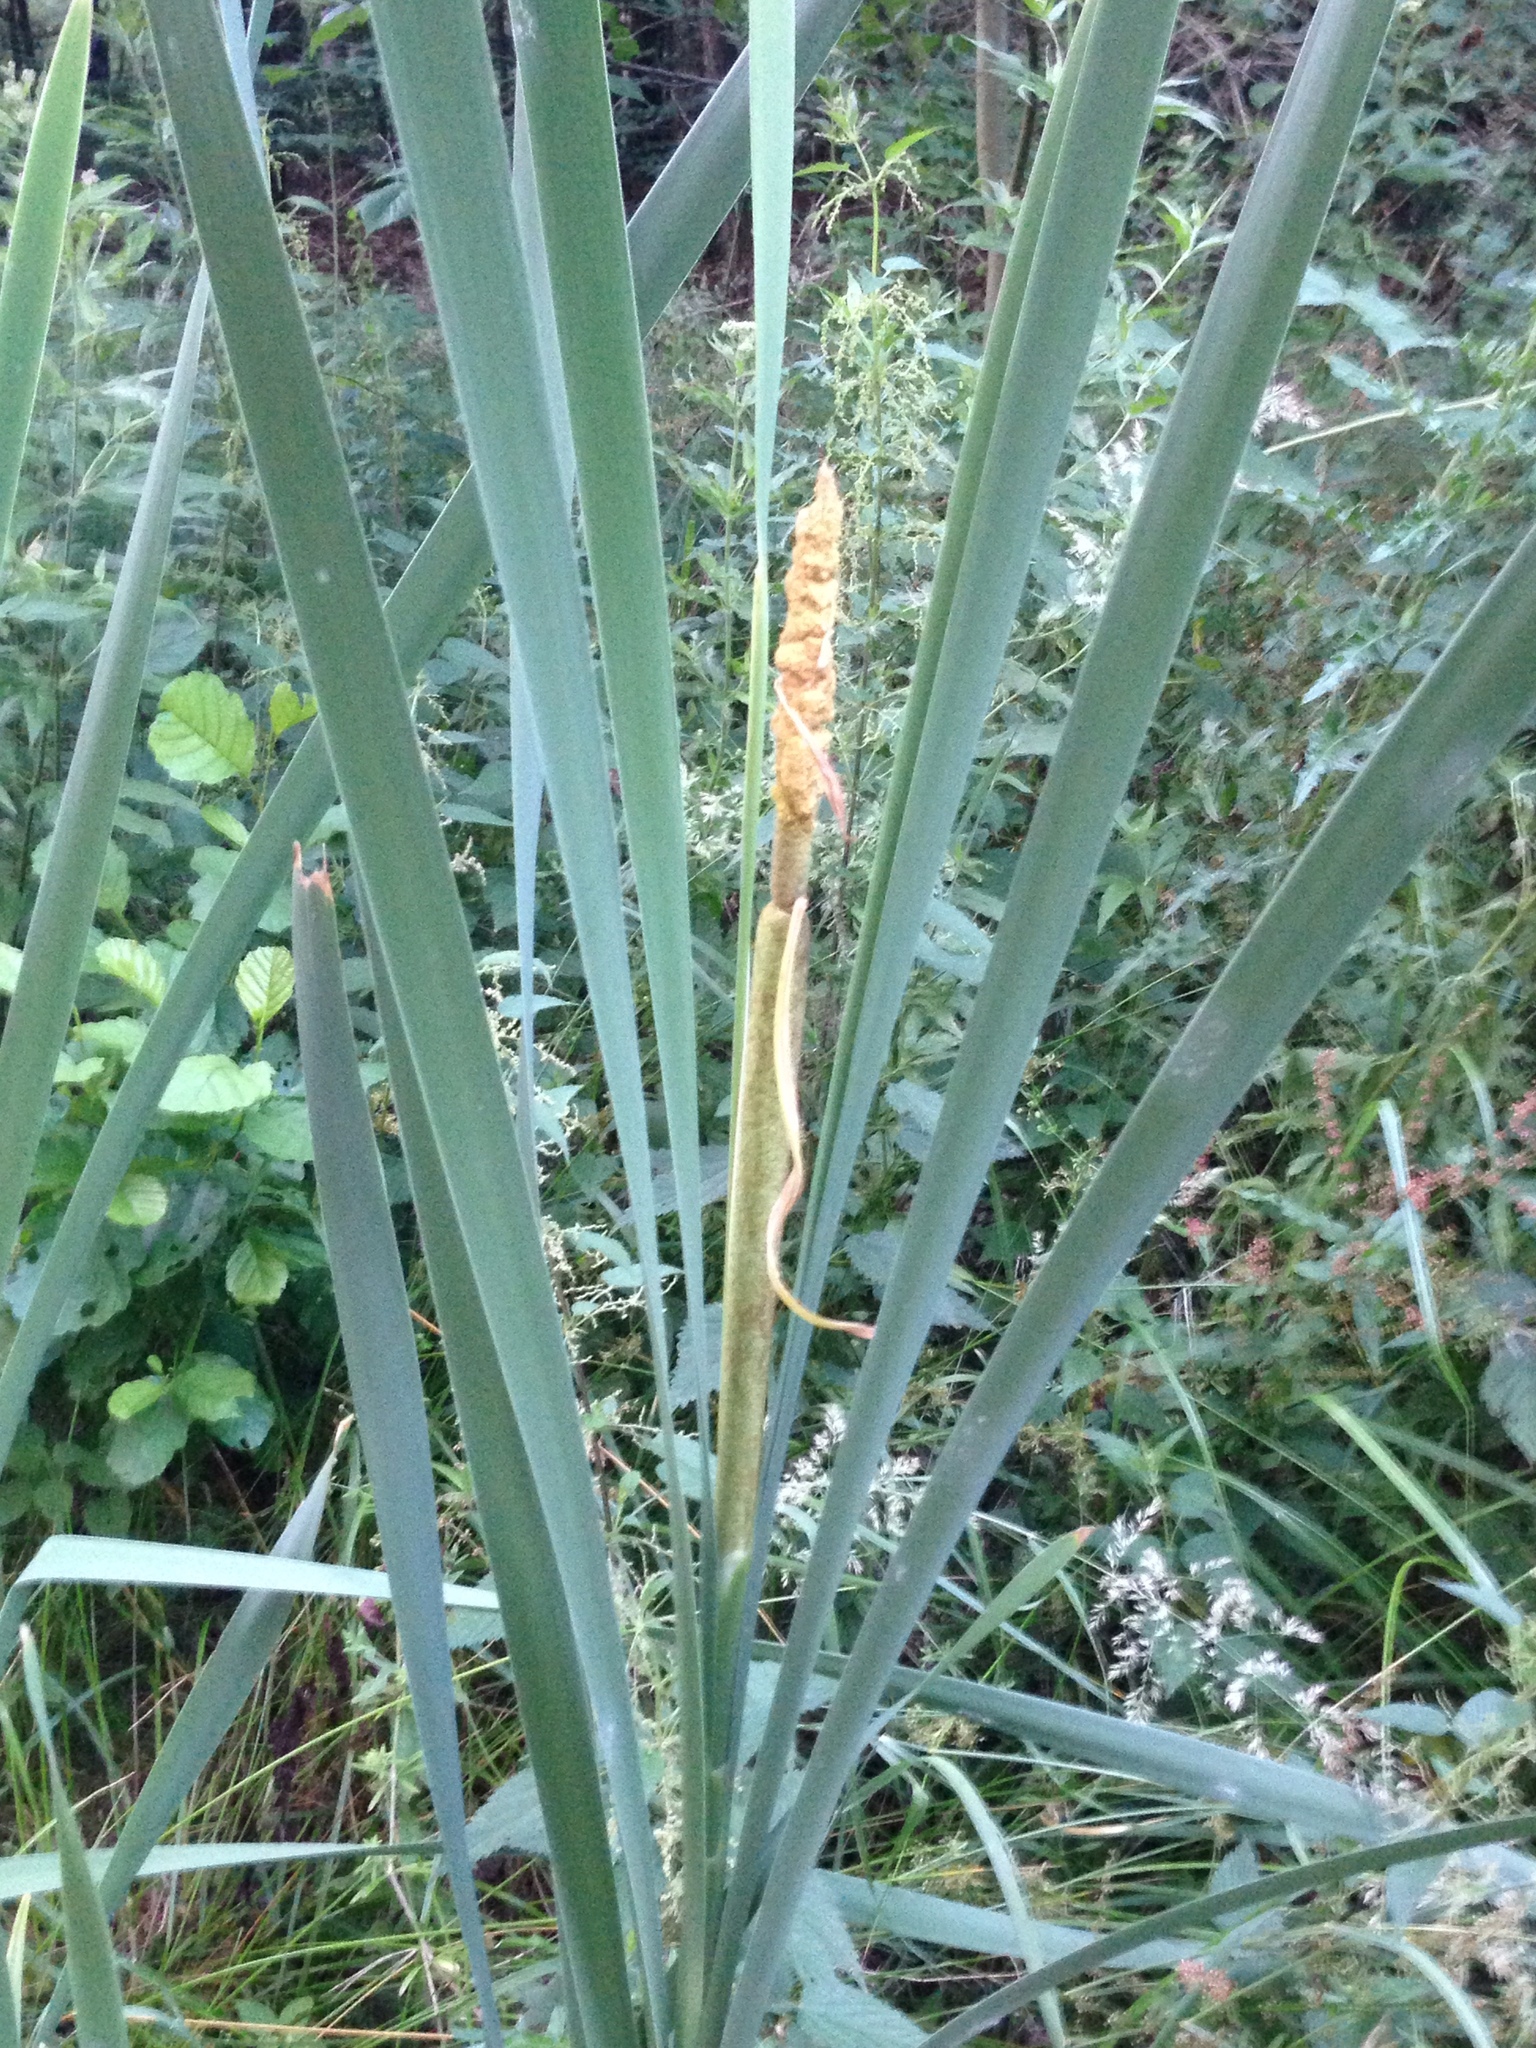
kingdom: Plantae
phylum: Tracheophyta
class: Liliopsida
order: Poales
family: Typhaceae
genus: Typha
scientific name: Typha latifolia
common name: Broadleaf cattail
